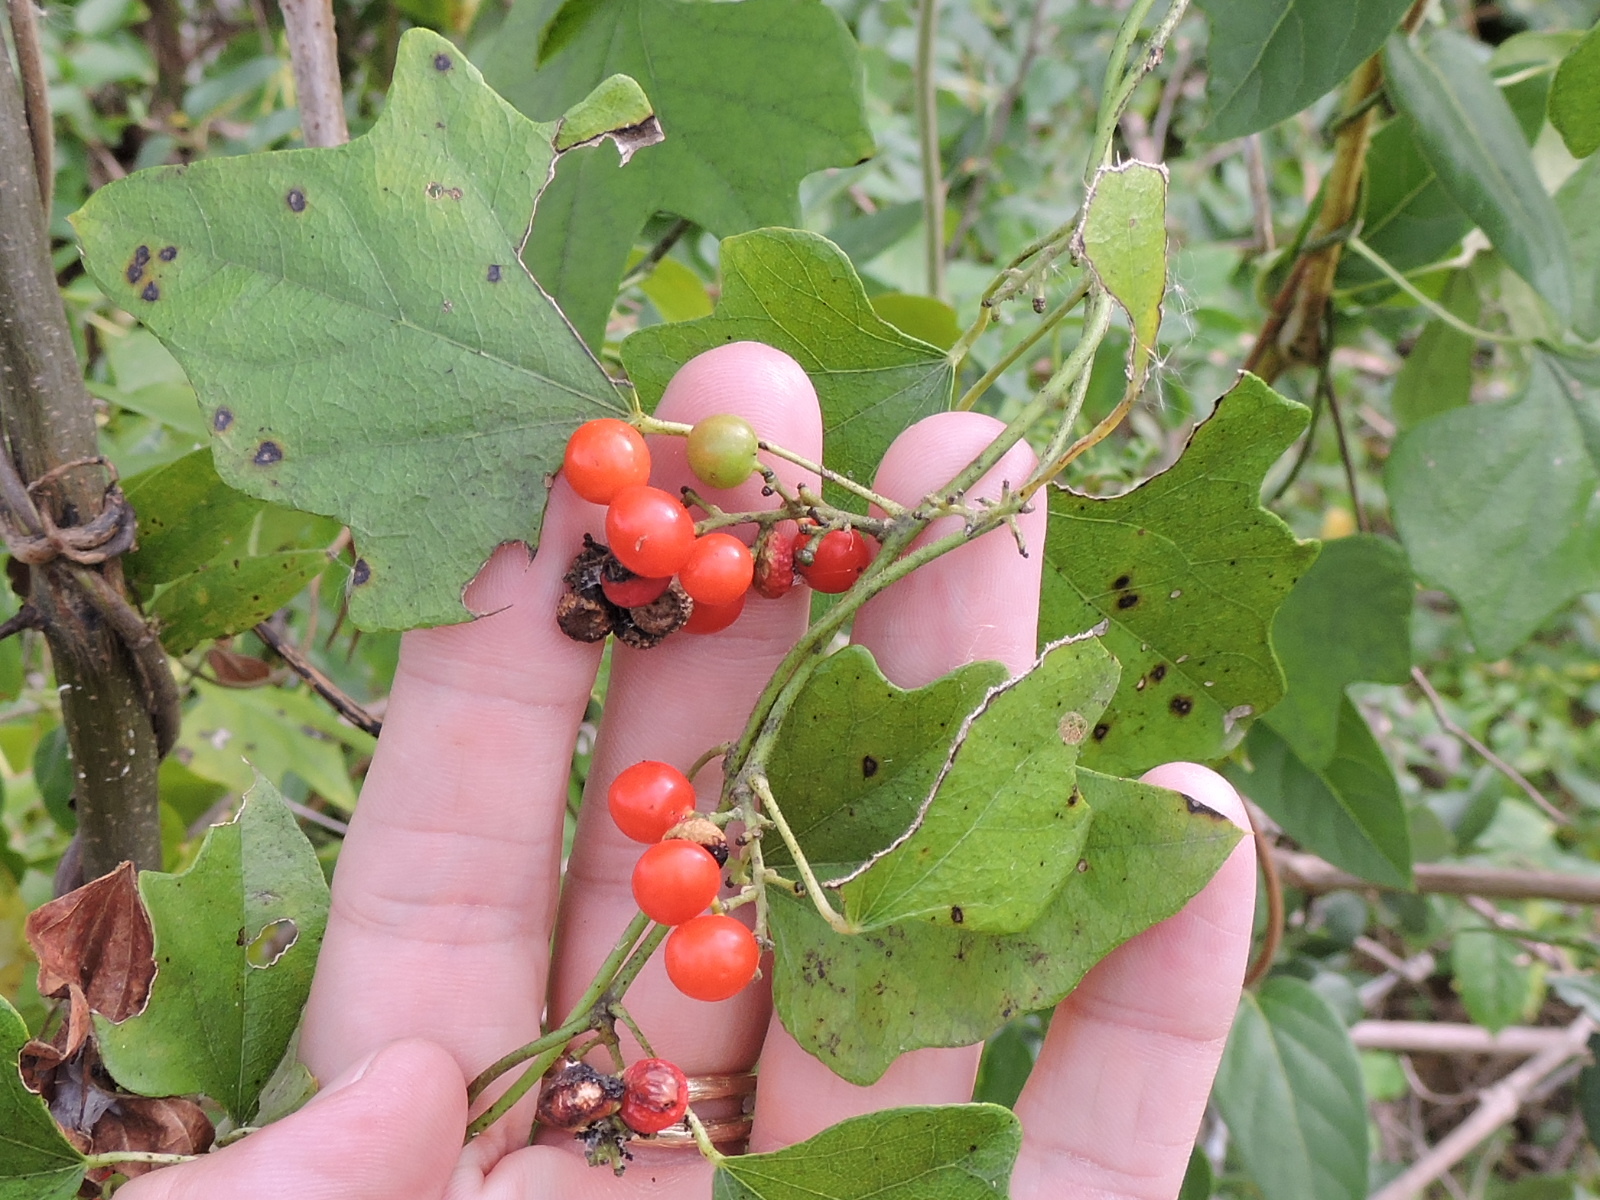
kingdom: Plantae
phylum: Tracheophyta
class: Magnoliopsida
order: Ranunculales
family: Menispermaceae
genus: Cocculus
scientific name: Cocculus carolinus
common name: Carolina moonseed
